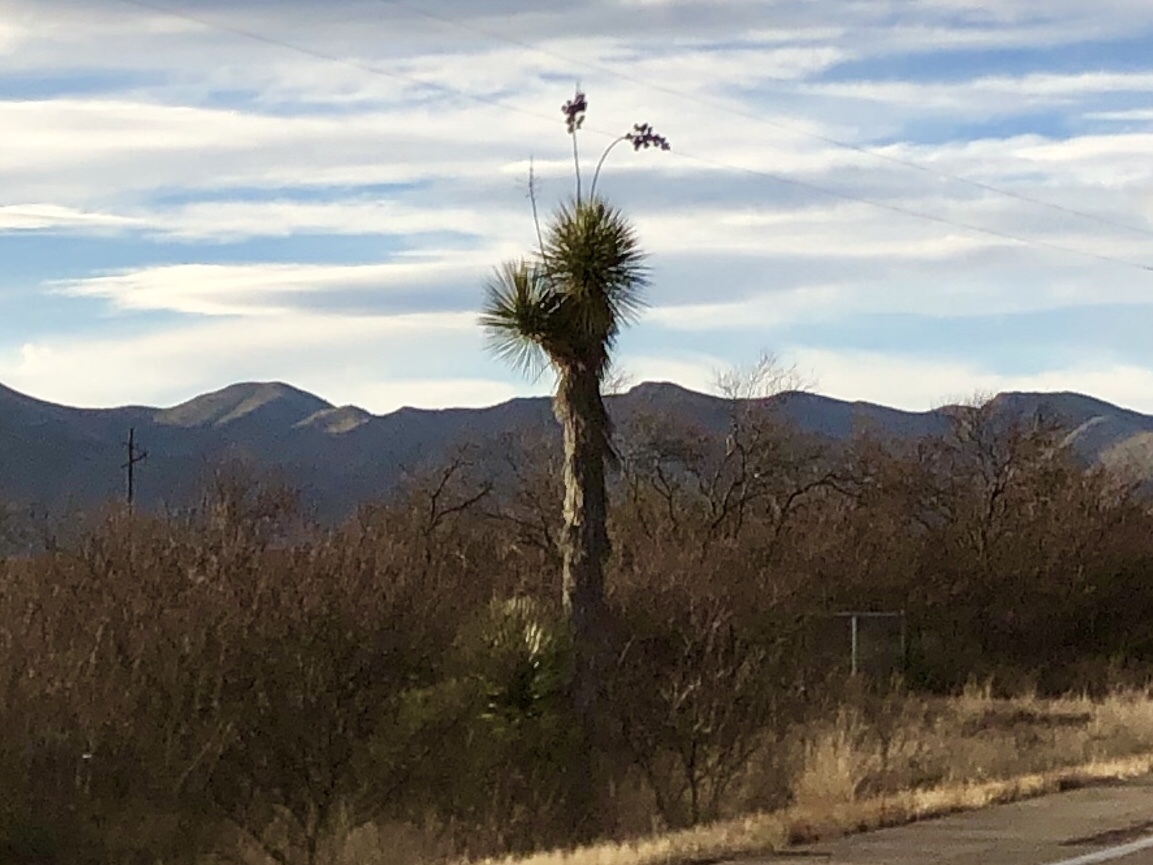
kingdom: Plantae
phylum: Tracheophyta
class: Liliopsida
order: Asparagales
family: Asparagaceae
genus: Yucca
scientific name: Yucca elata
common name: Palmella
